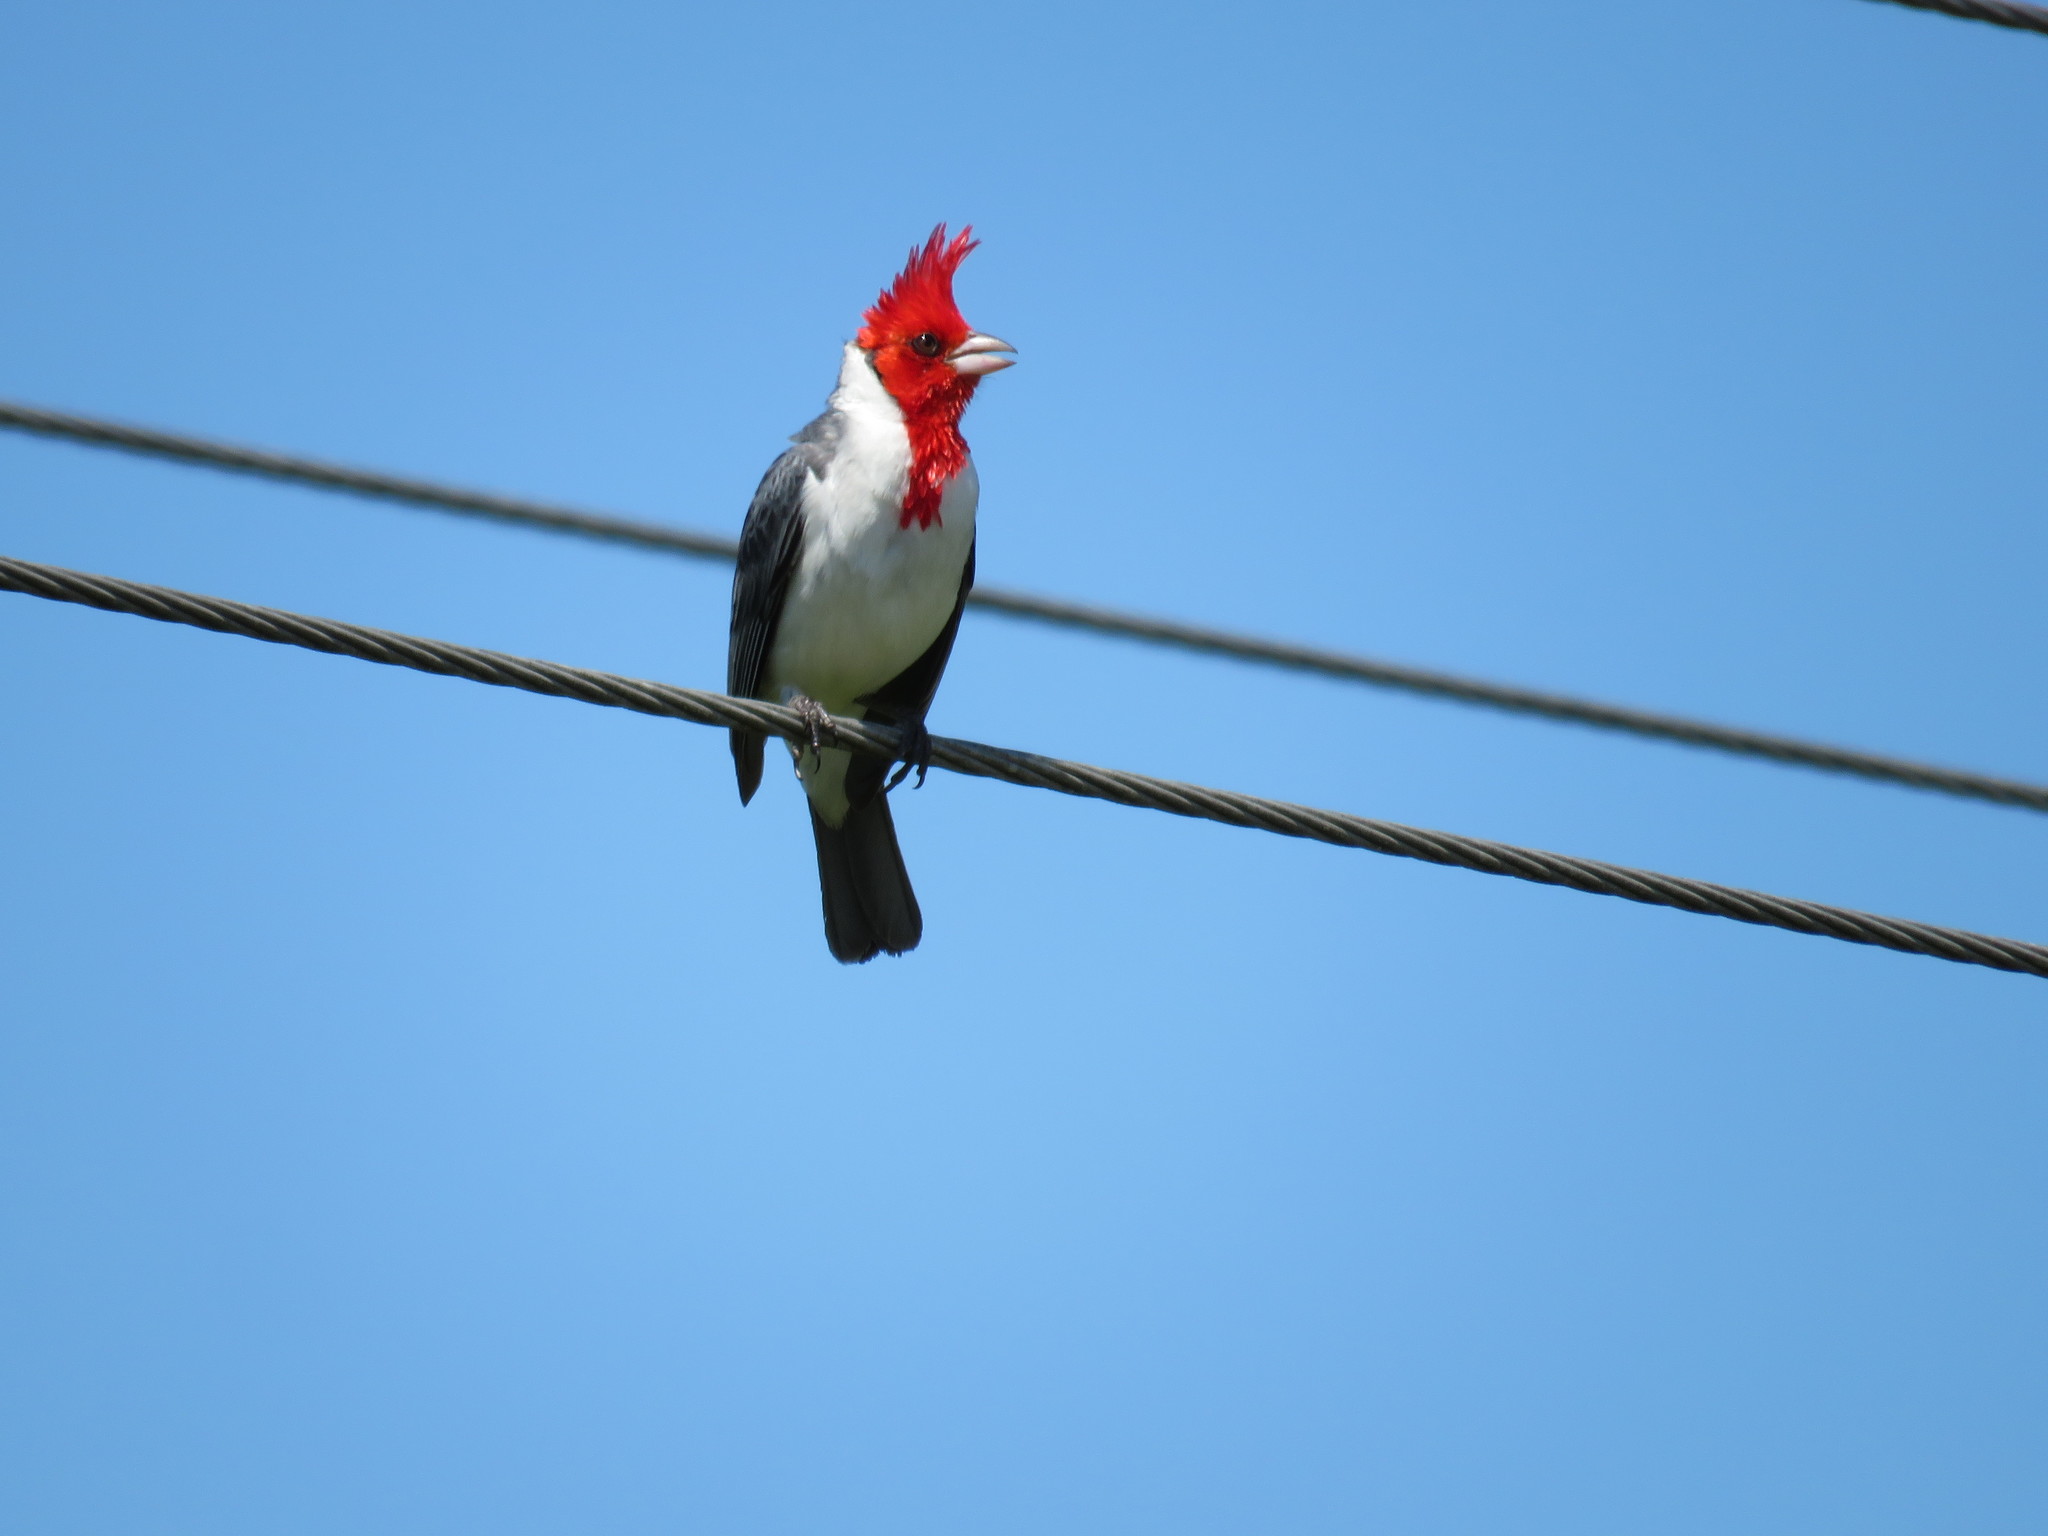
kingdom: Animalia
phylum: Chordata
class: Aves
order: Passeriformes
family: Thraupidae
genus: Paroaria
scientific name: Paroaria coronata
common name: Red-crested cardinal
